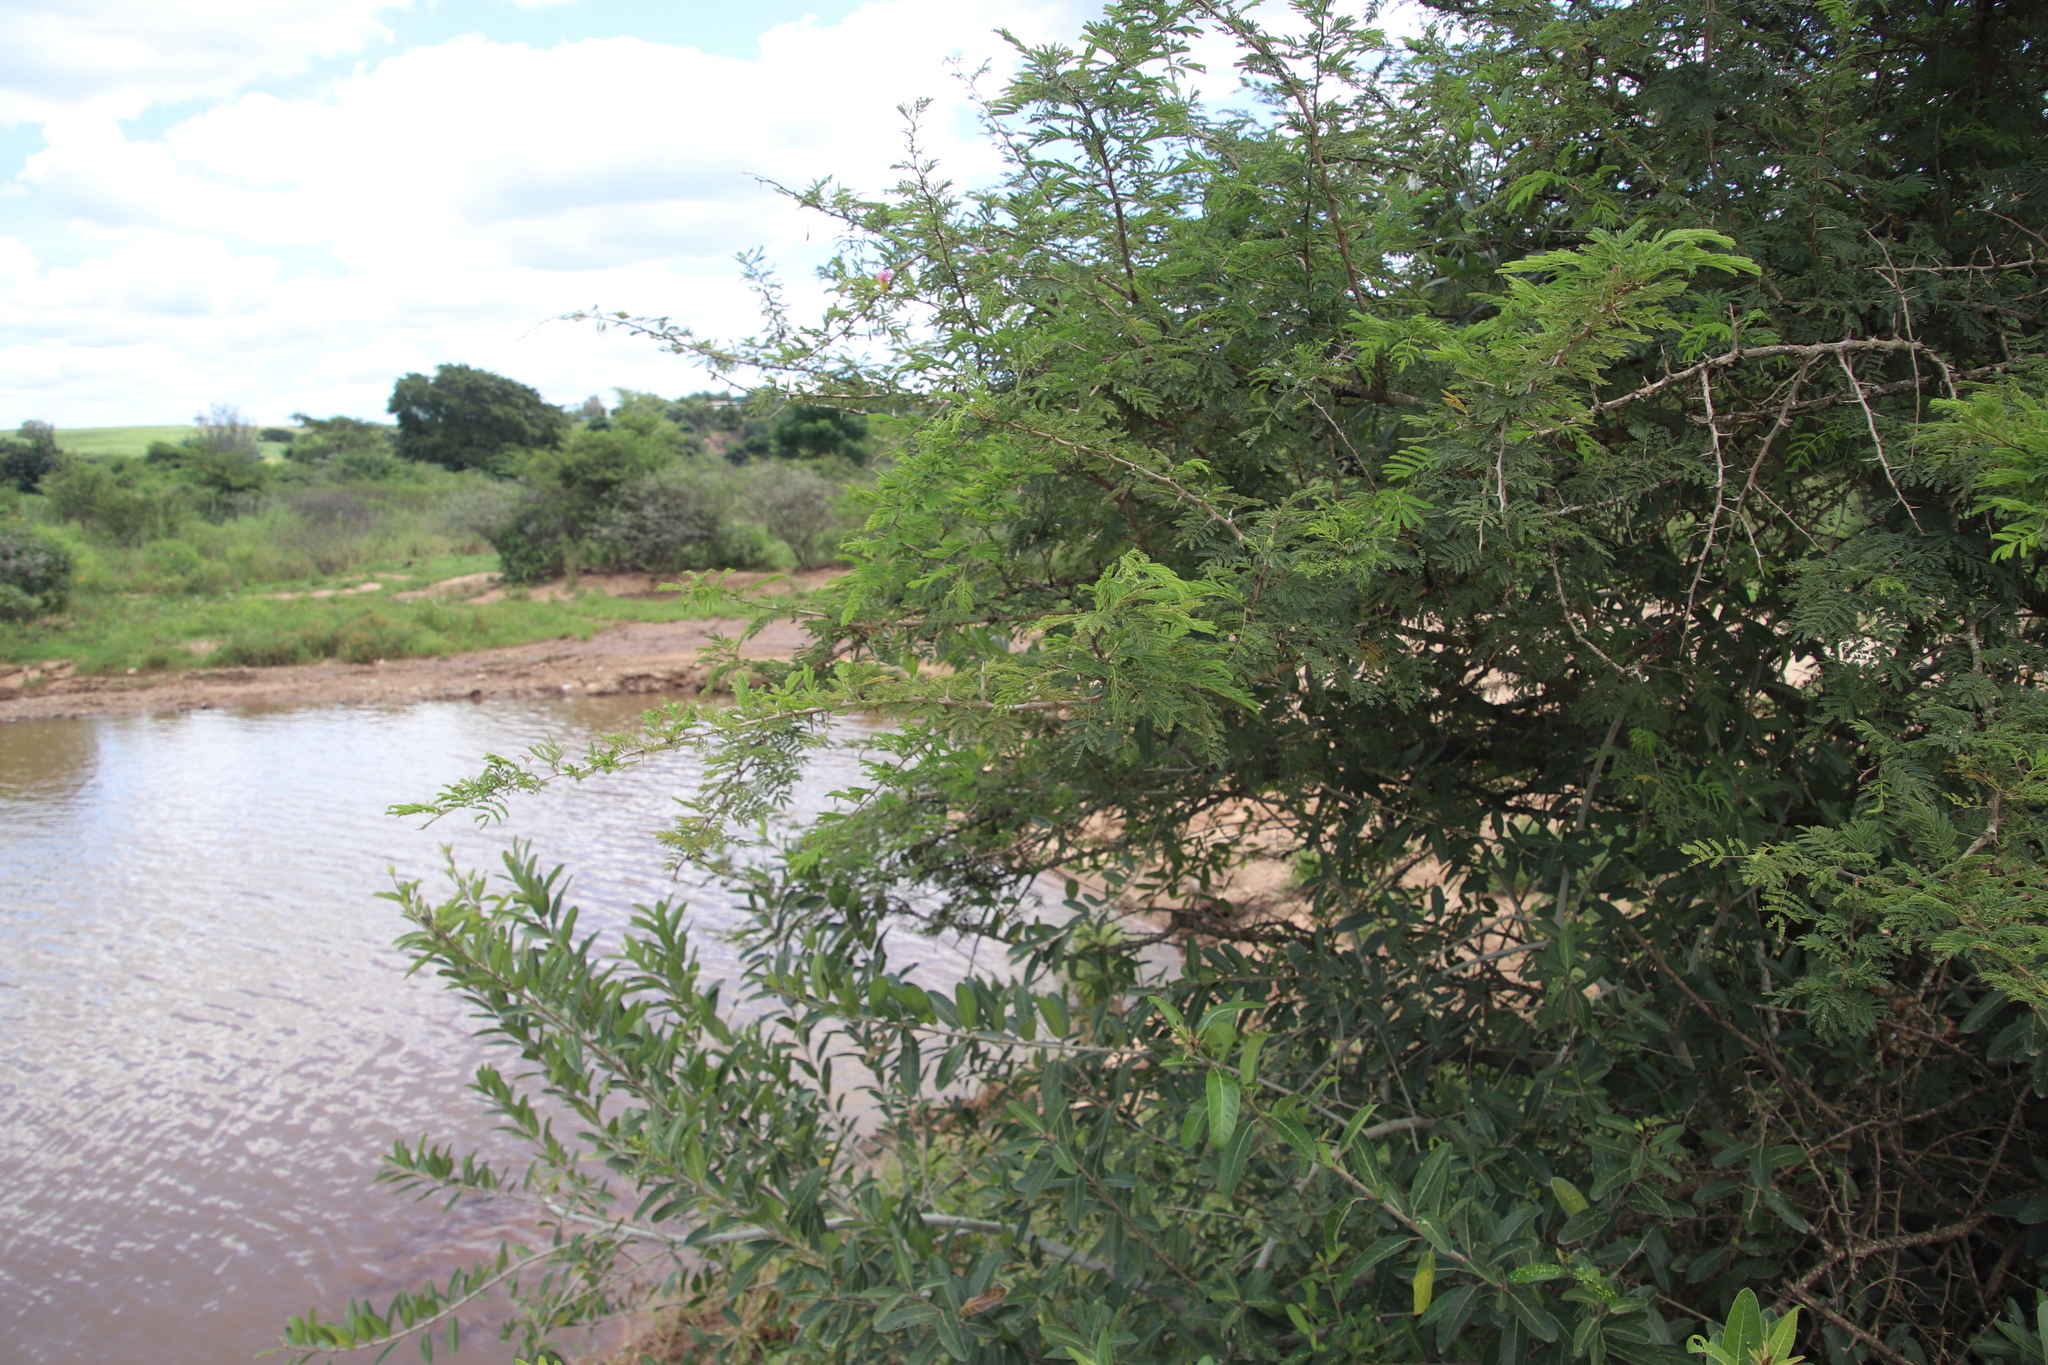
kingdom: Plantae
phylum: Tracheophyta
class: Magnoliopsida
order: Fabales
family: Fabaceae
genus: Dichrostachys
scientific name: Dichrostachys cinerea
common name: Sicklebush
